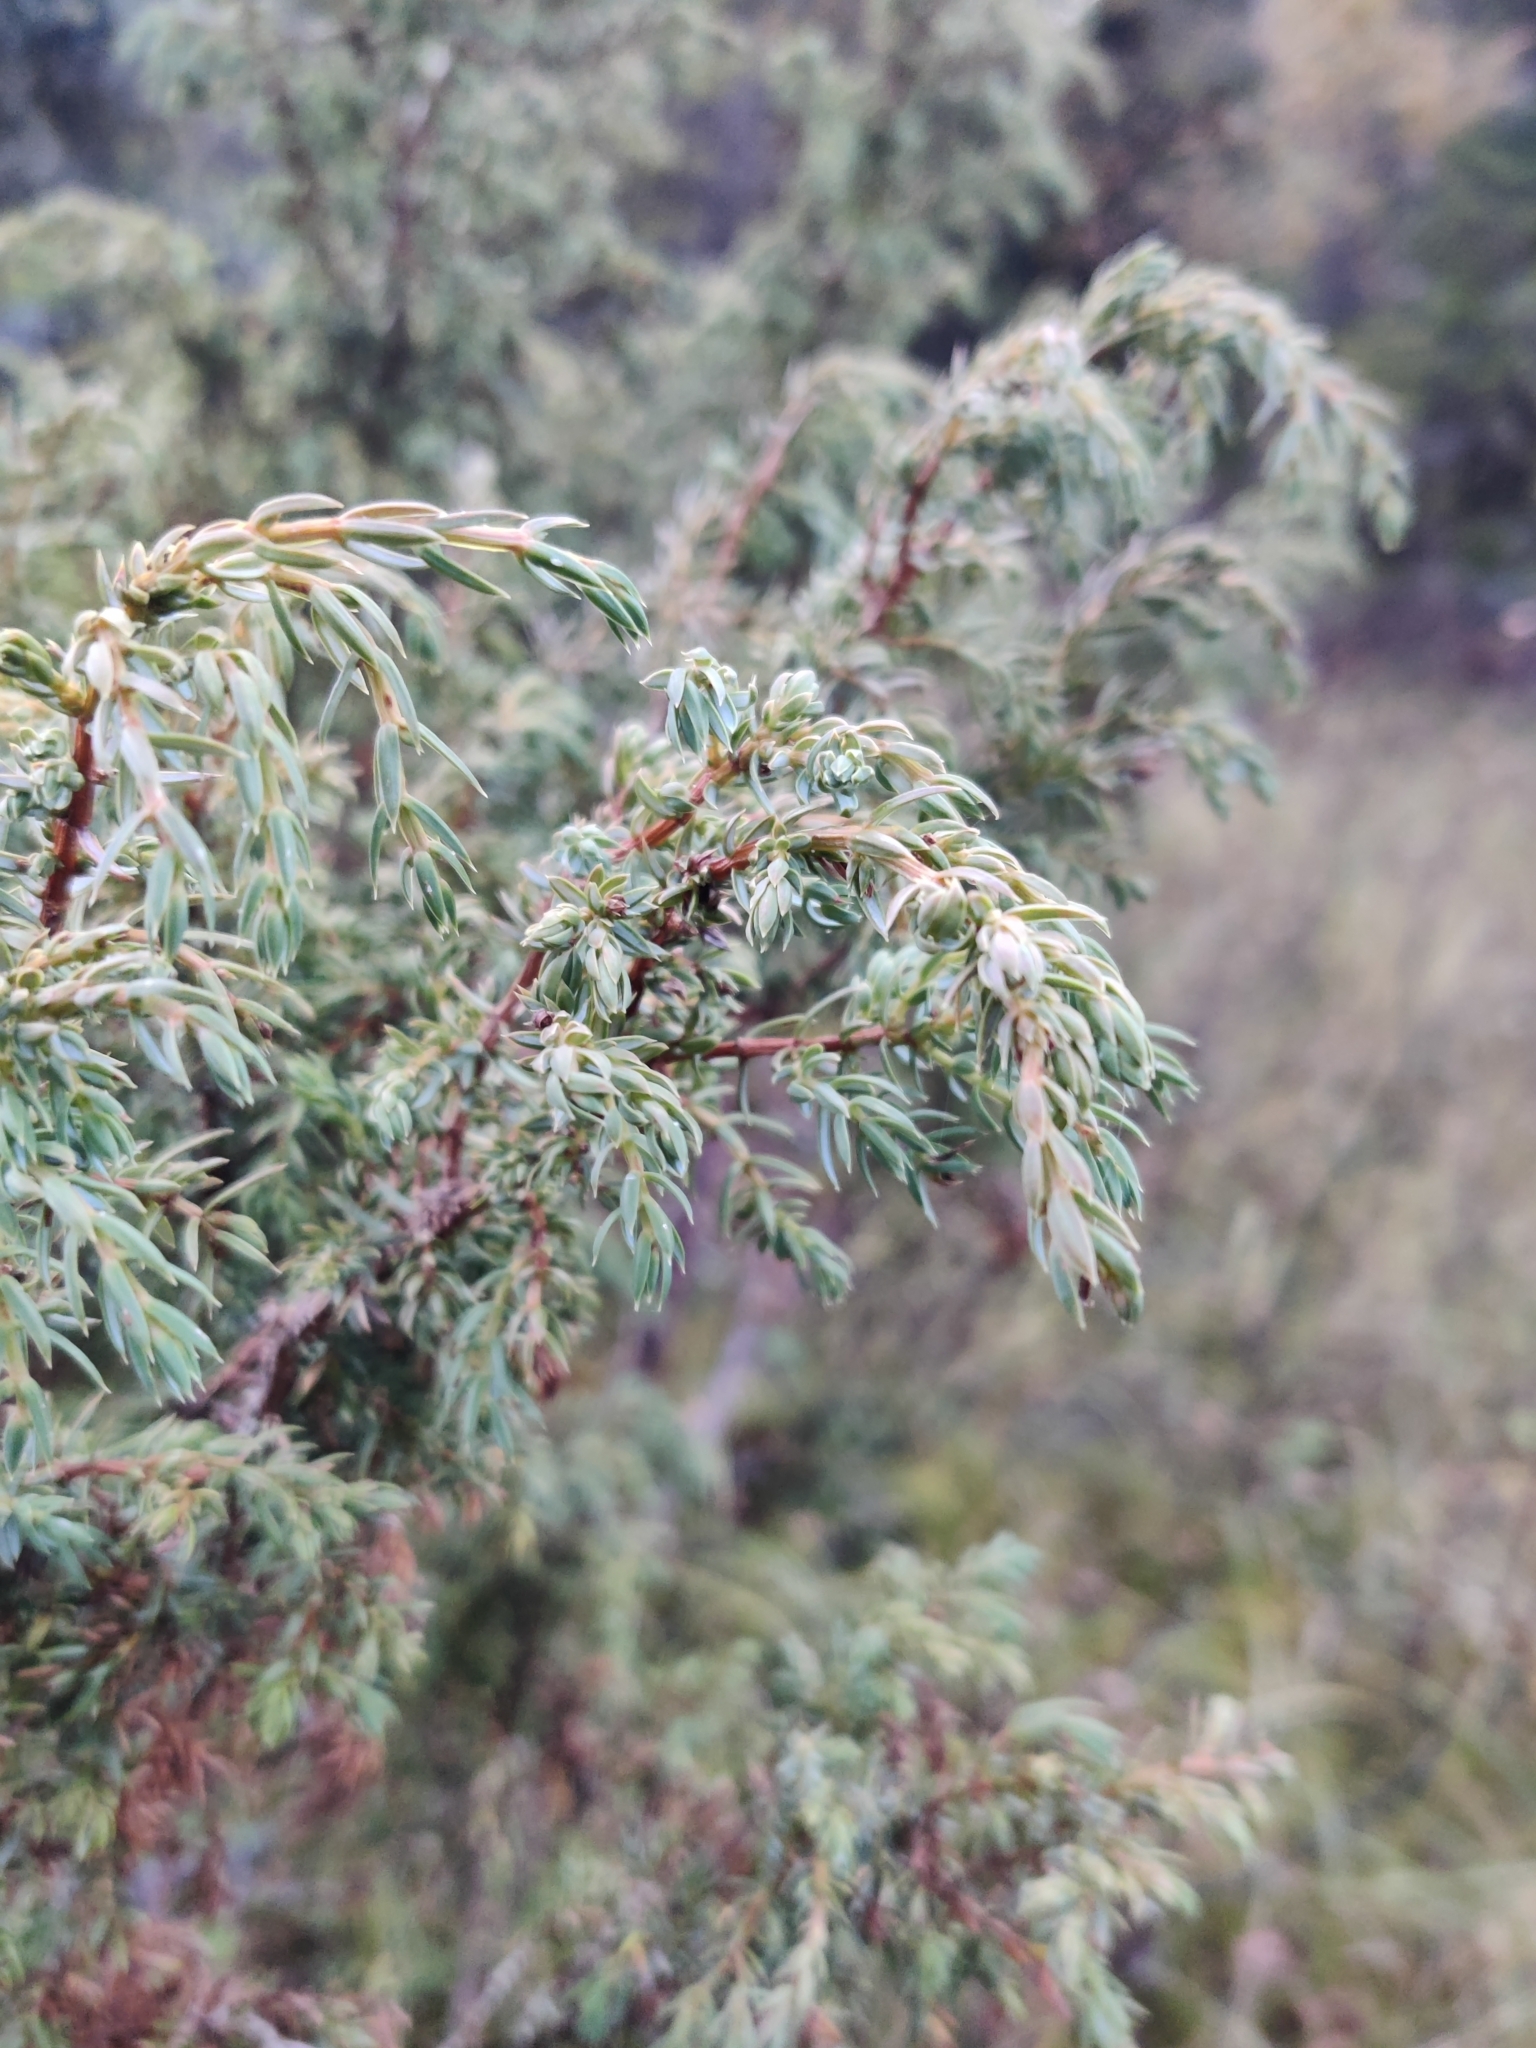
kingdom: Plantae
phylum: Tracheophyta
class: Pinopsida
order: Pinales
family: Cupressaceae
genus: Juniperus
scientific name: Juniperus communis
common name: Common juniper
